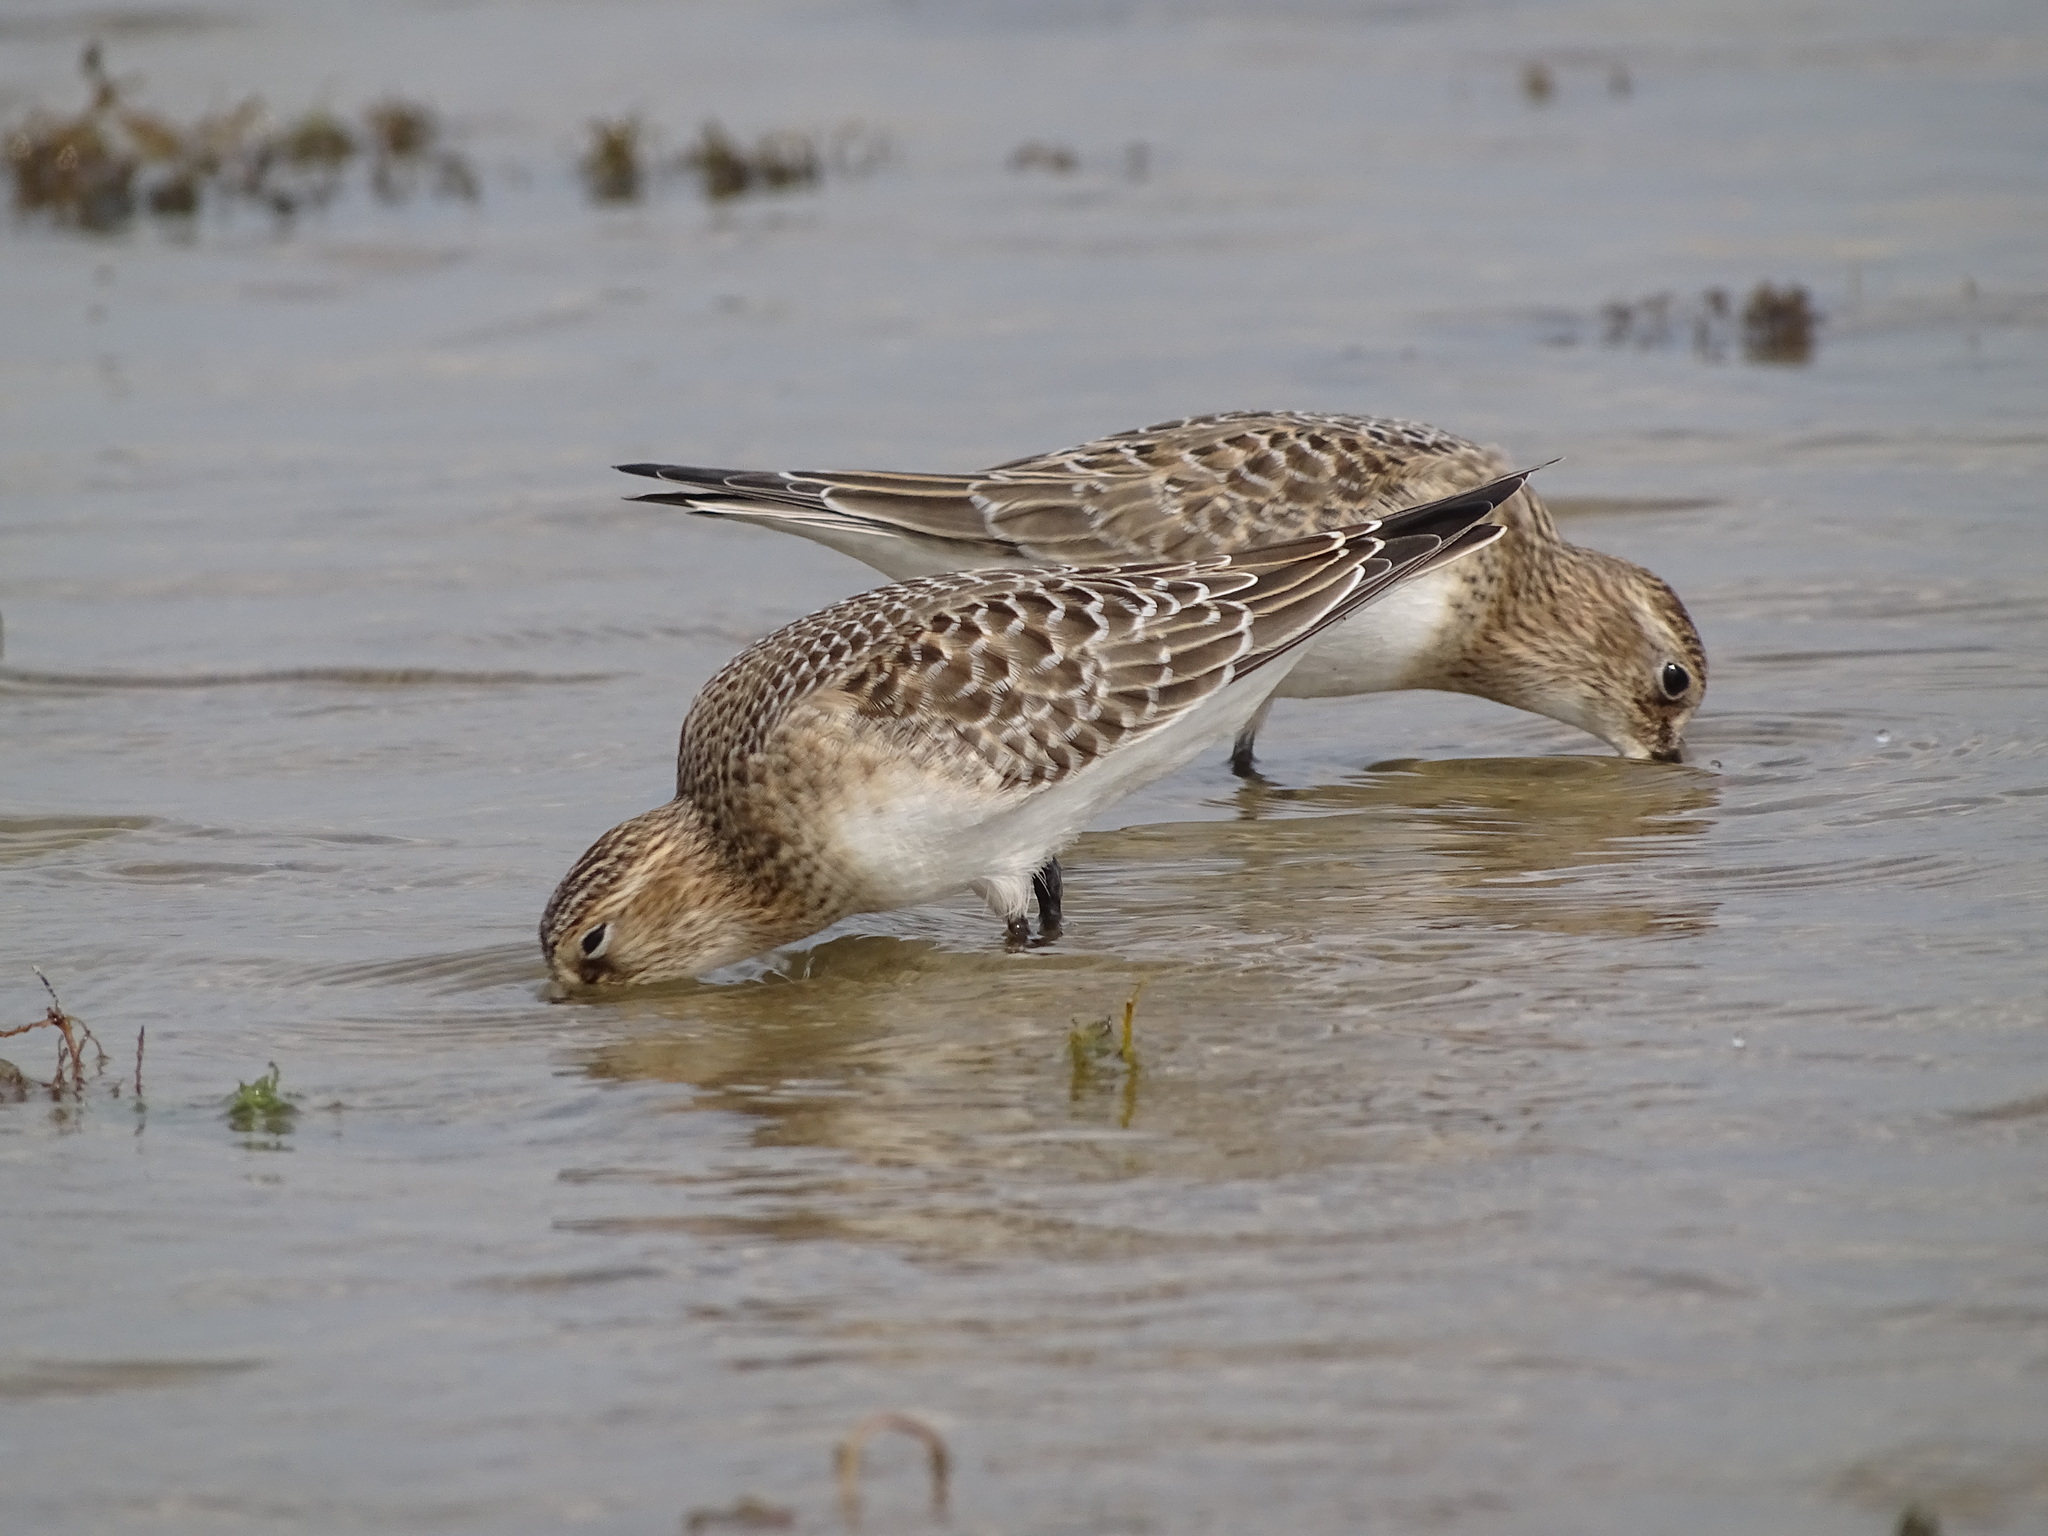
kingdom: Animalia
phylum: Chordata
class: Aves
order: Charadriiformes
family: Scolopacidae
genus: Calidris
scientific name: Calidris bairdii
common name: Baird's sandpiper
